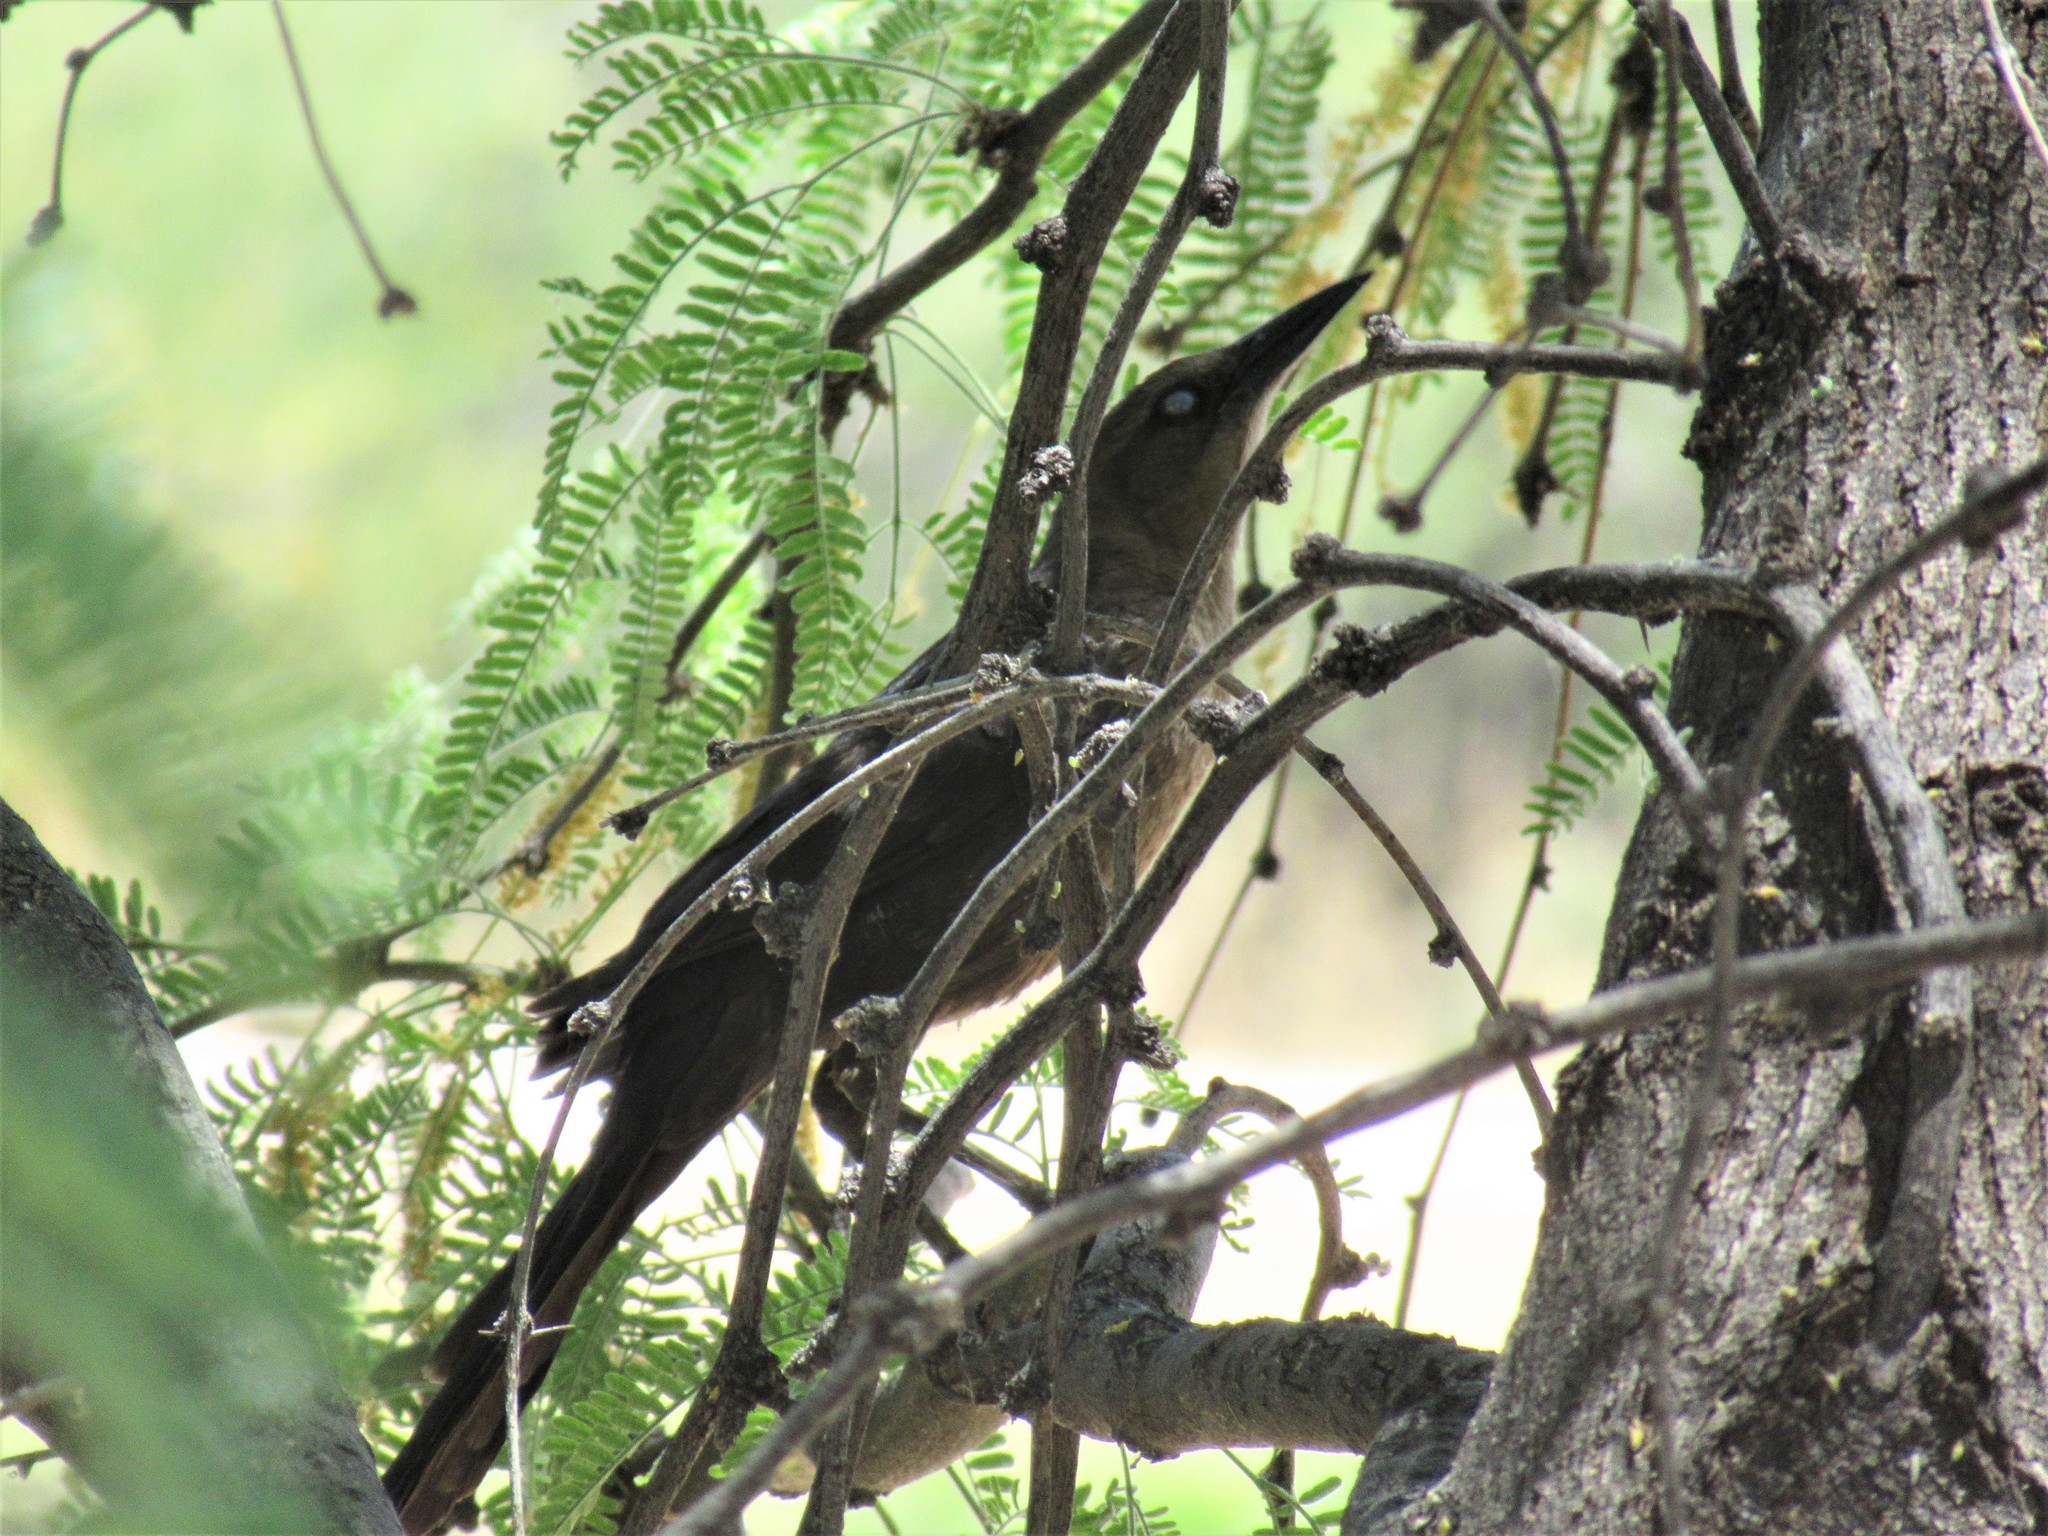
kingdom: Animalia
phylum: Chordata
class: Aves
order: Passeriformes
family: Icteridae
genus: Quiscalus
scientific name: Quiscalus mexicanus
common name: Great-tailed grackle
